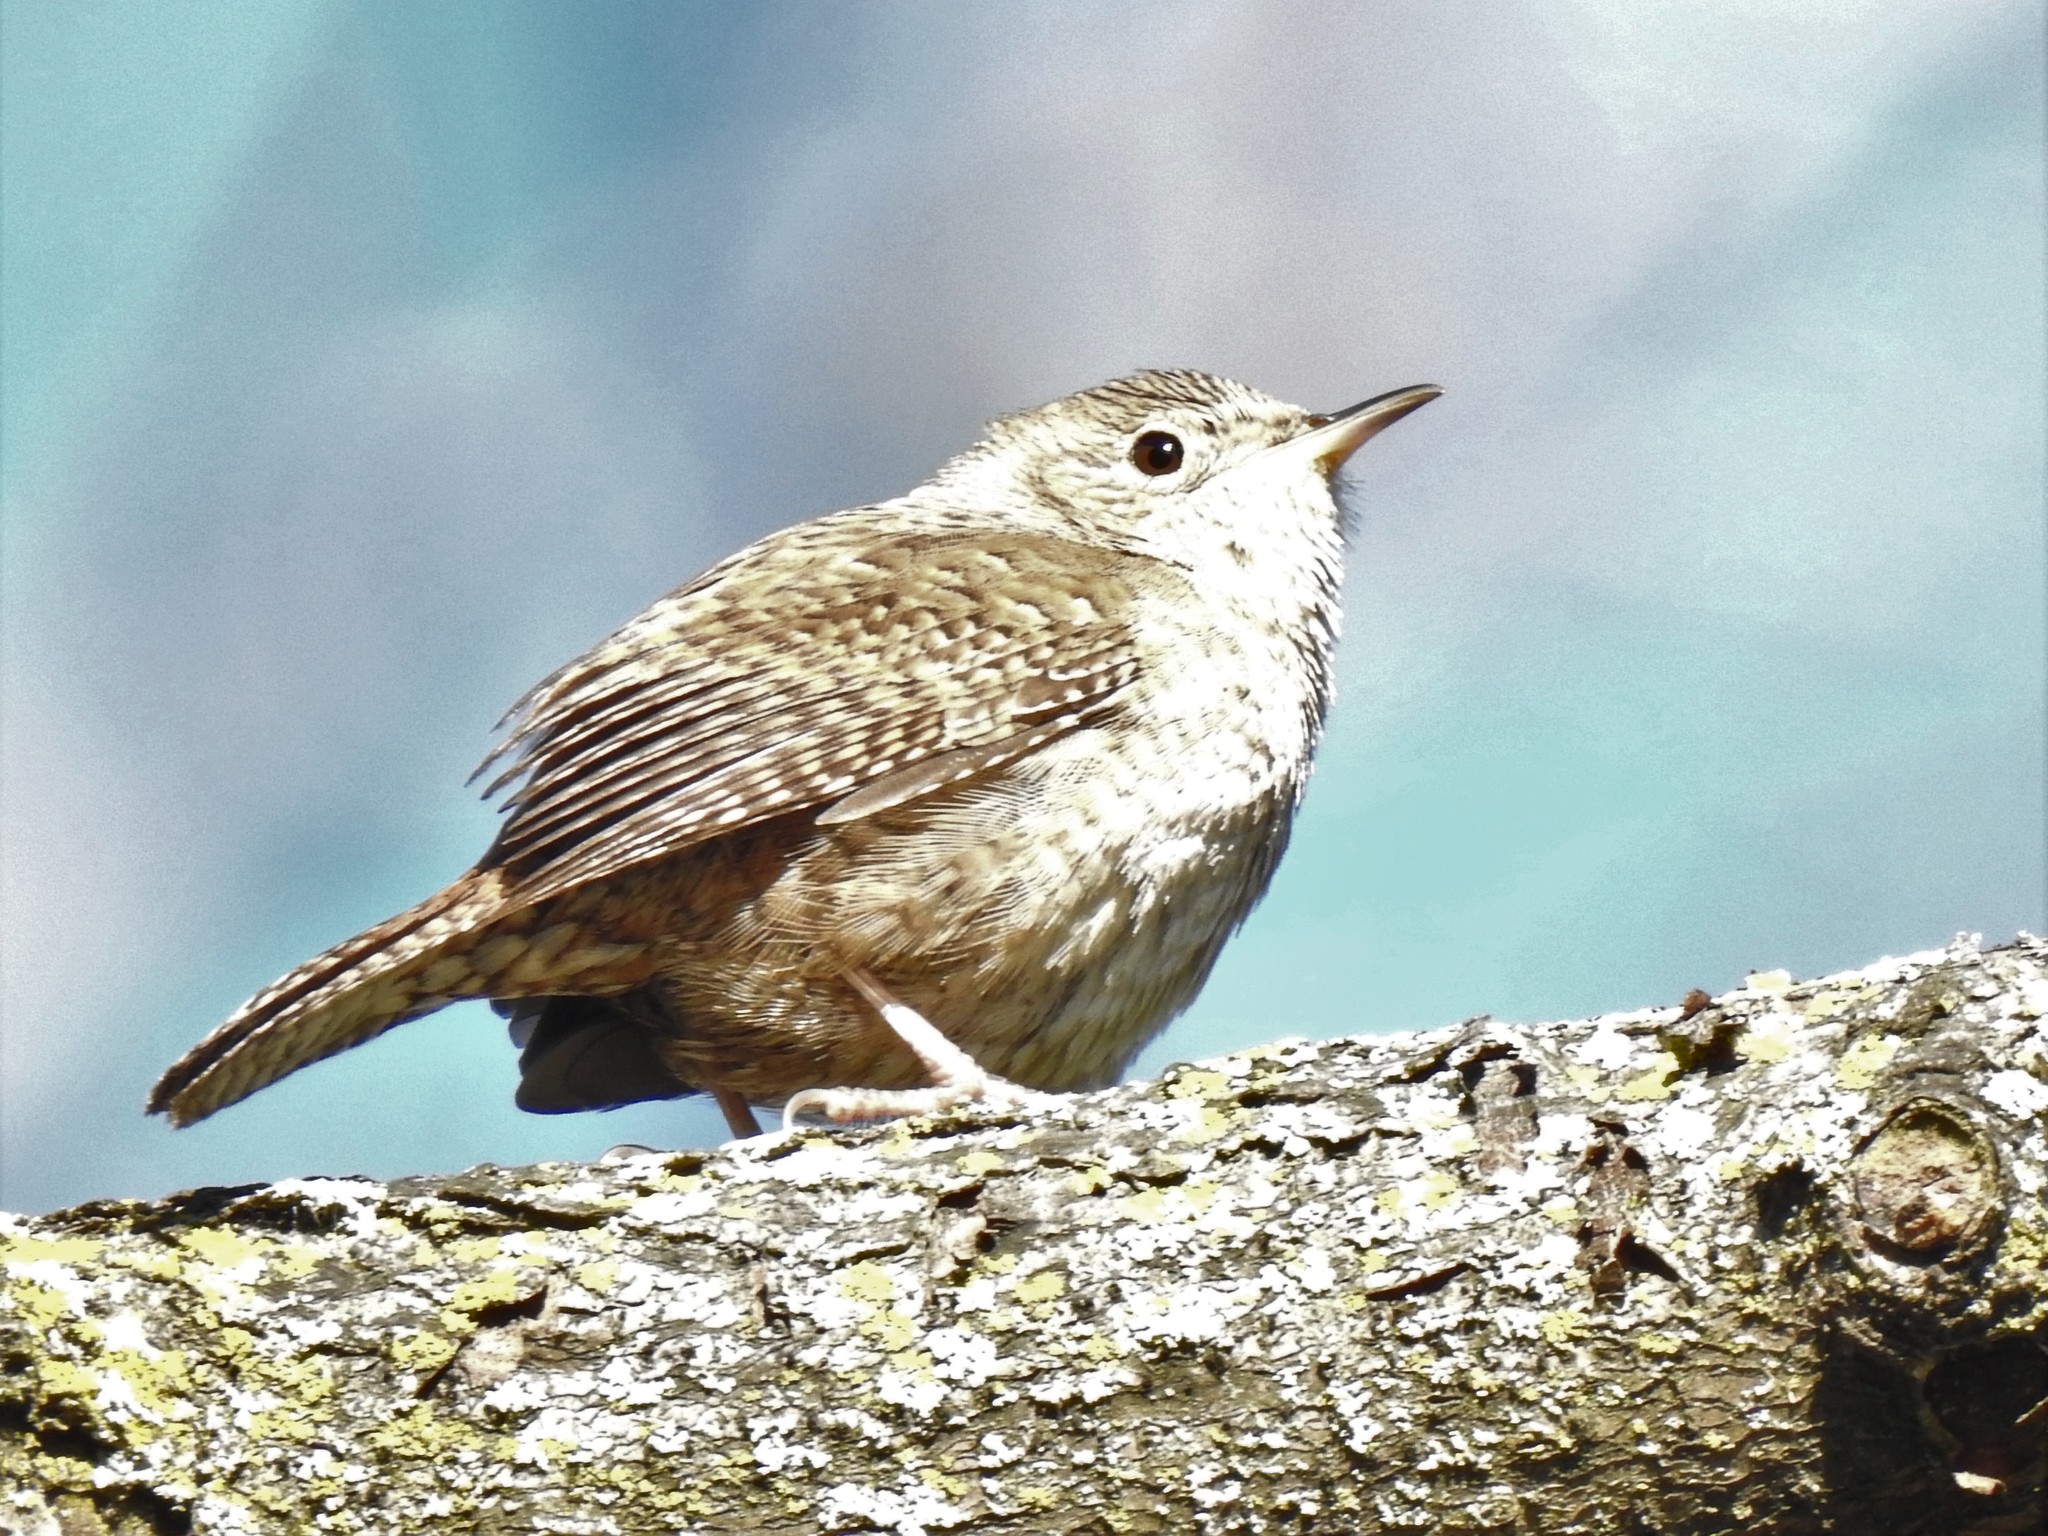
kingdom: Animalia
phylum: Chordata
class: Aves
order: Passeriformes
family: Troglodytidae
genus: Troglodytes
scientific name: Troglodytes aedon
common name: House wren
